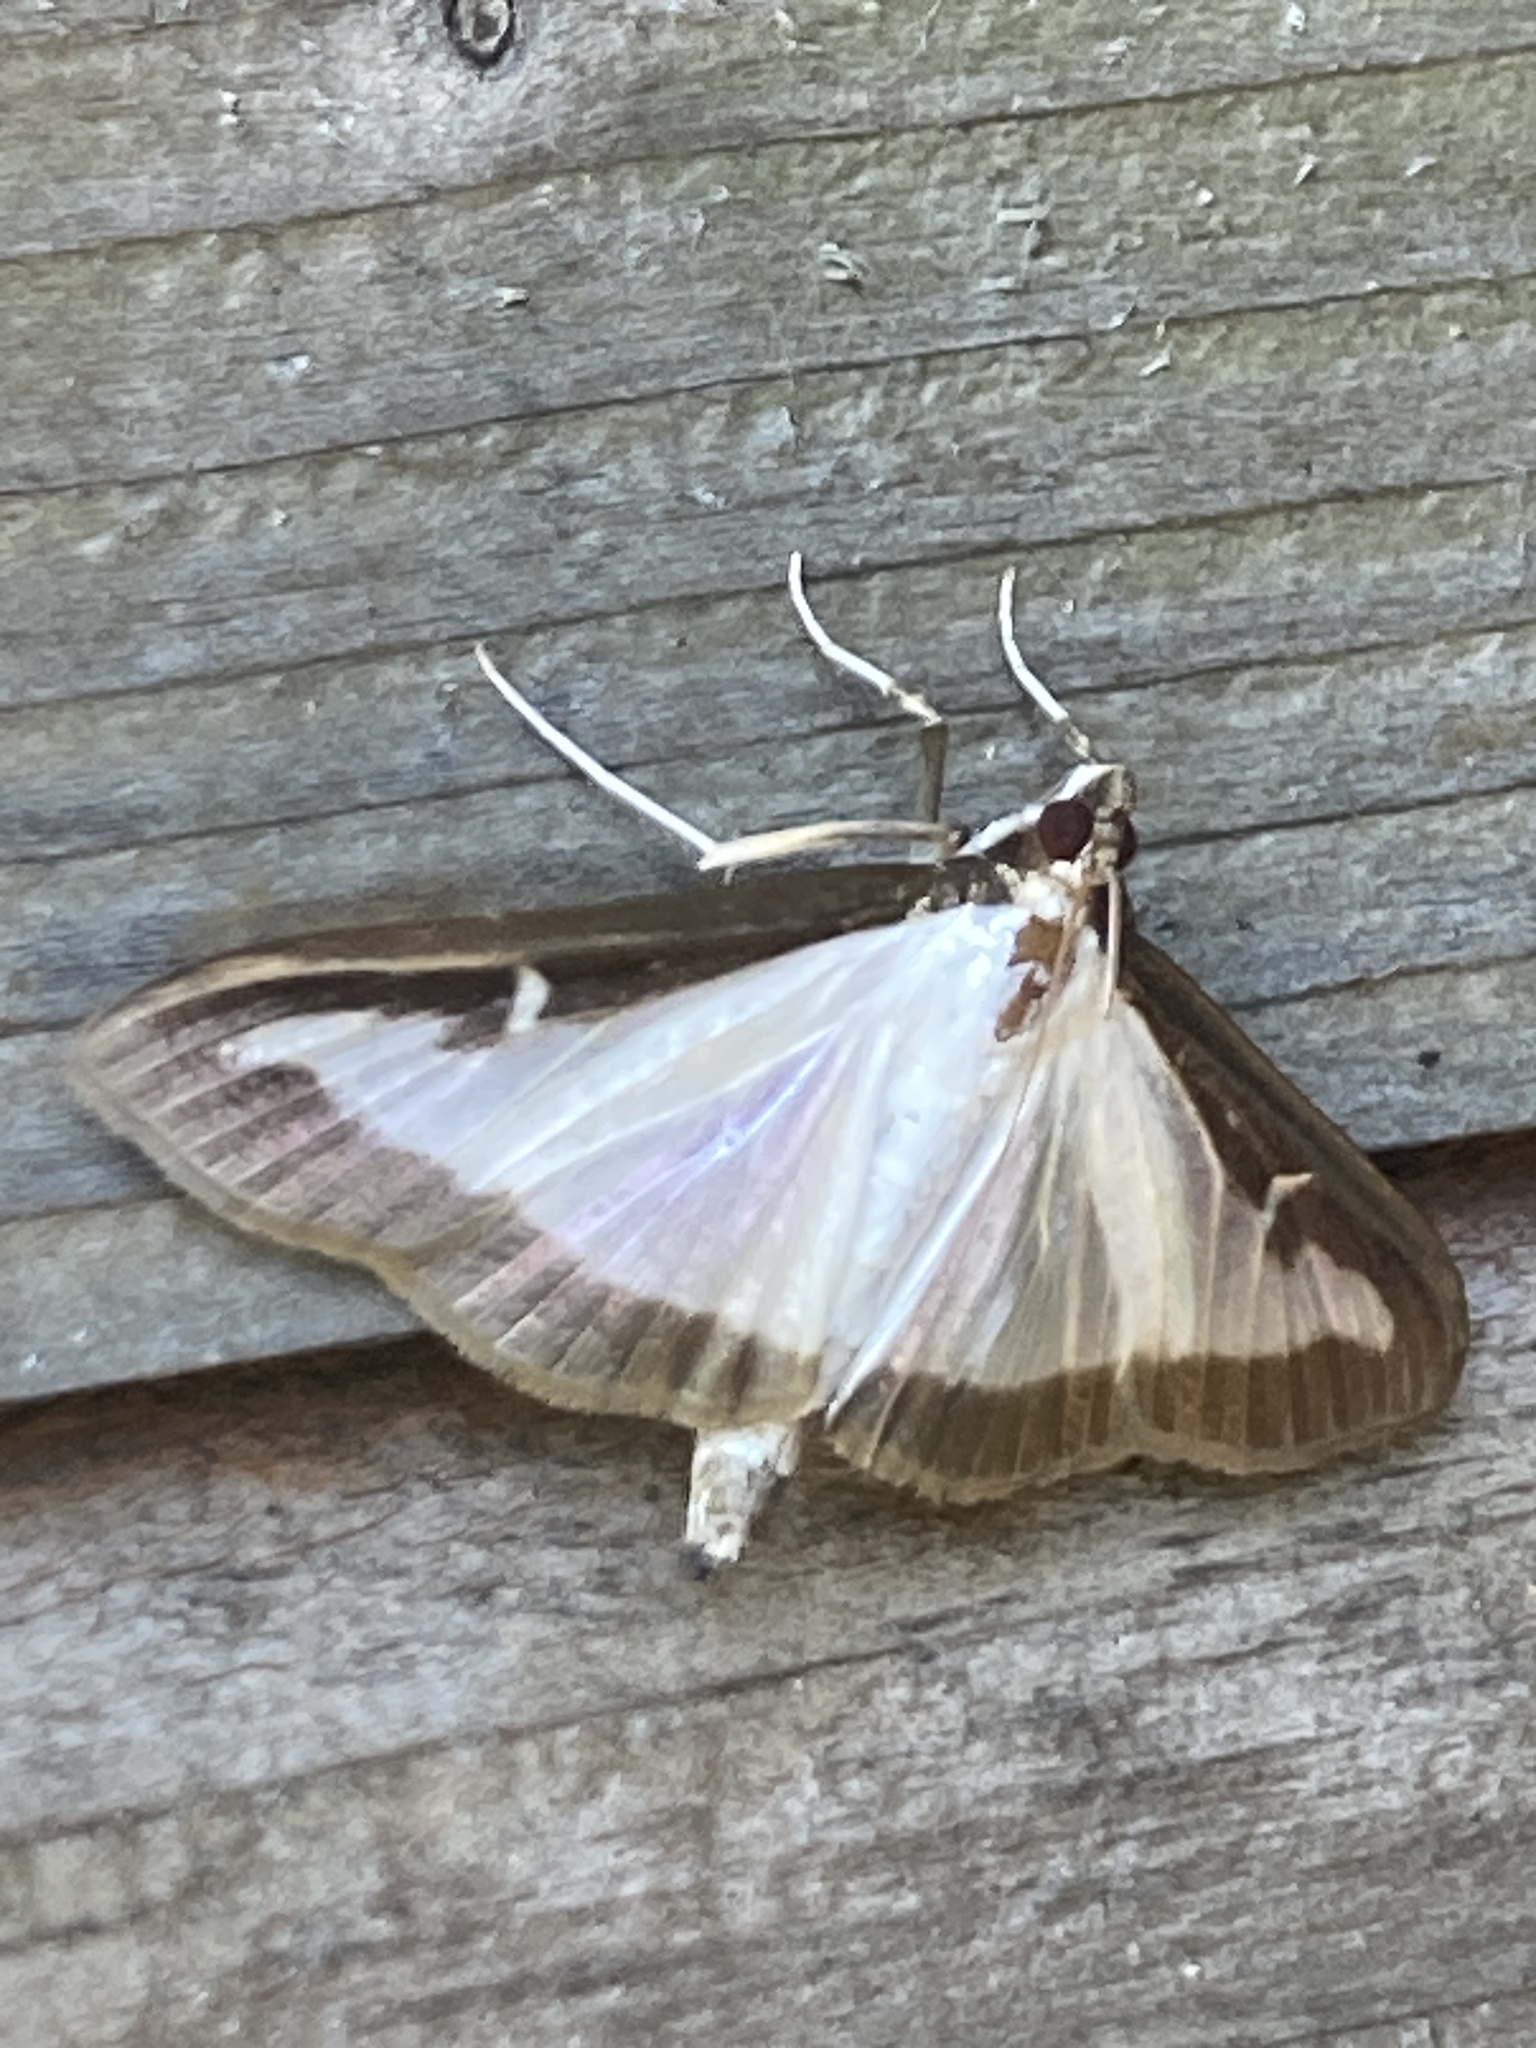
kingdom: Animalia
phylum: Arthropoda
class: Insecta
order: Lepidoptera
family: Crambidae
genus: Cydalima
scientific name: Cydalima perspectalis
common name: Box tree moth
